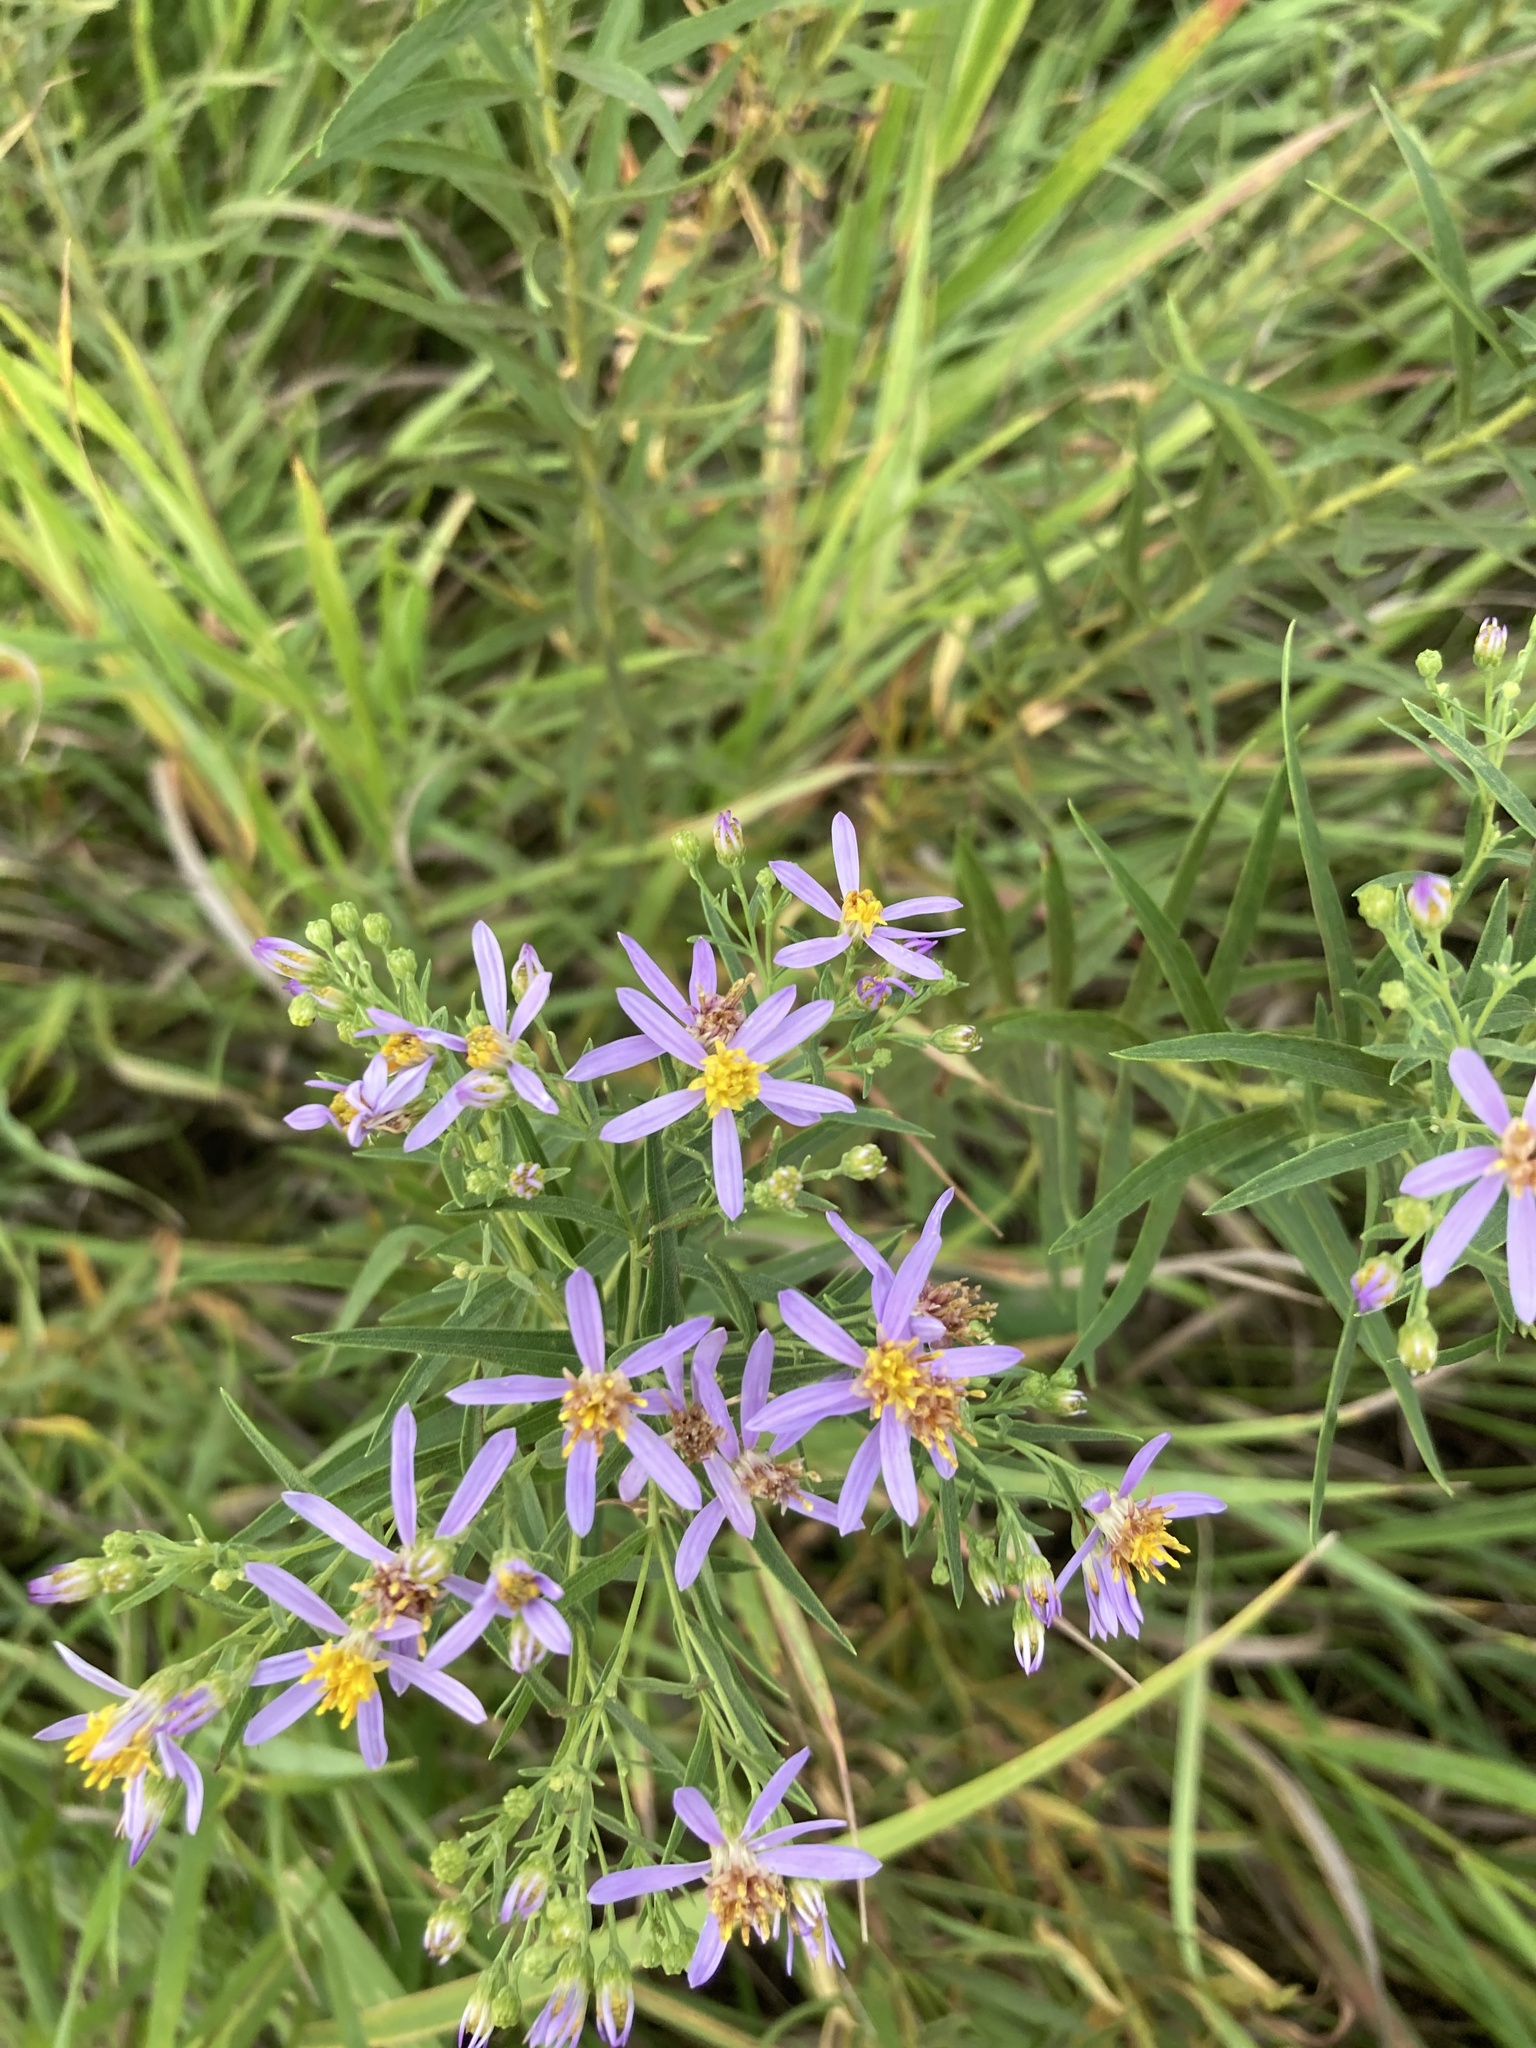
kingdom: Plantae
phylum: Tracheophyta
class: Magnoliopsida
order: Asterales
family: Asteraceae
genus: Galatella
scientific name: Galatella sedifolia
